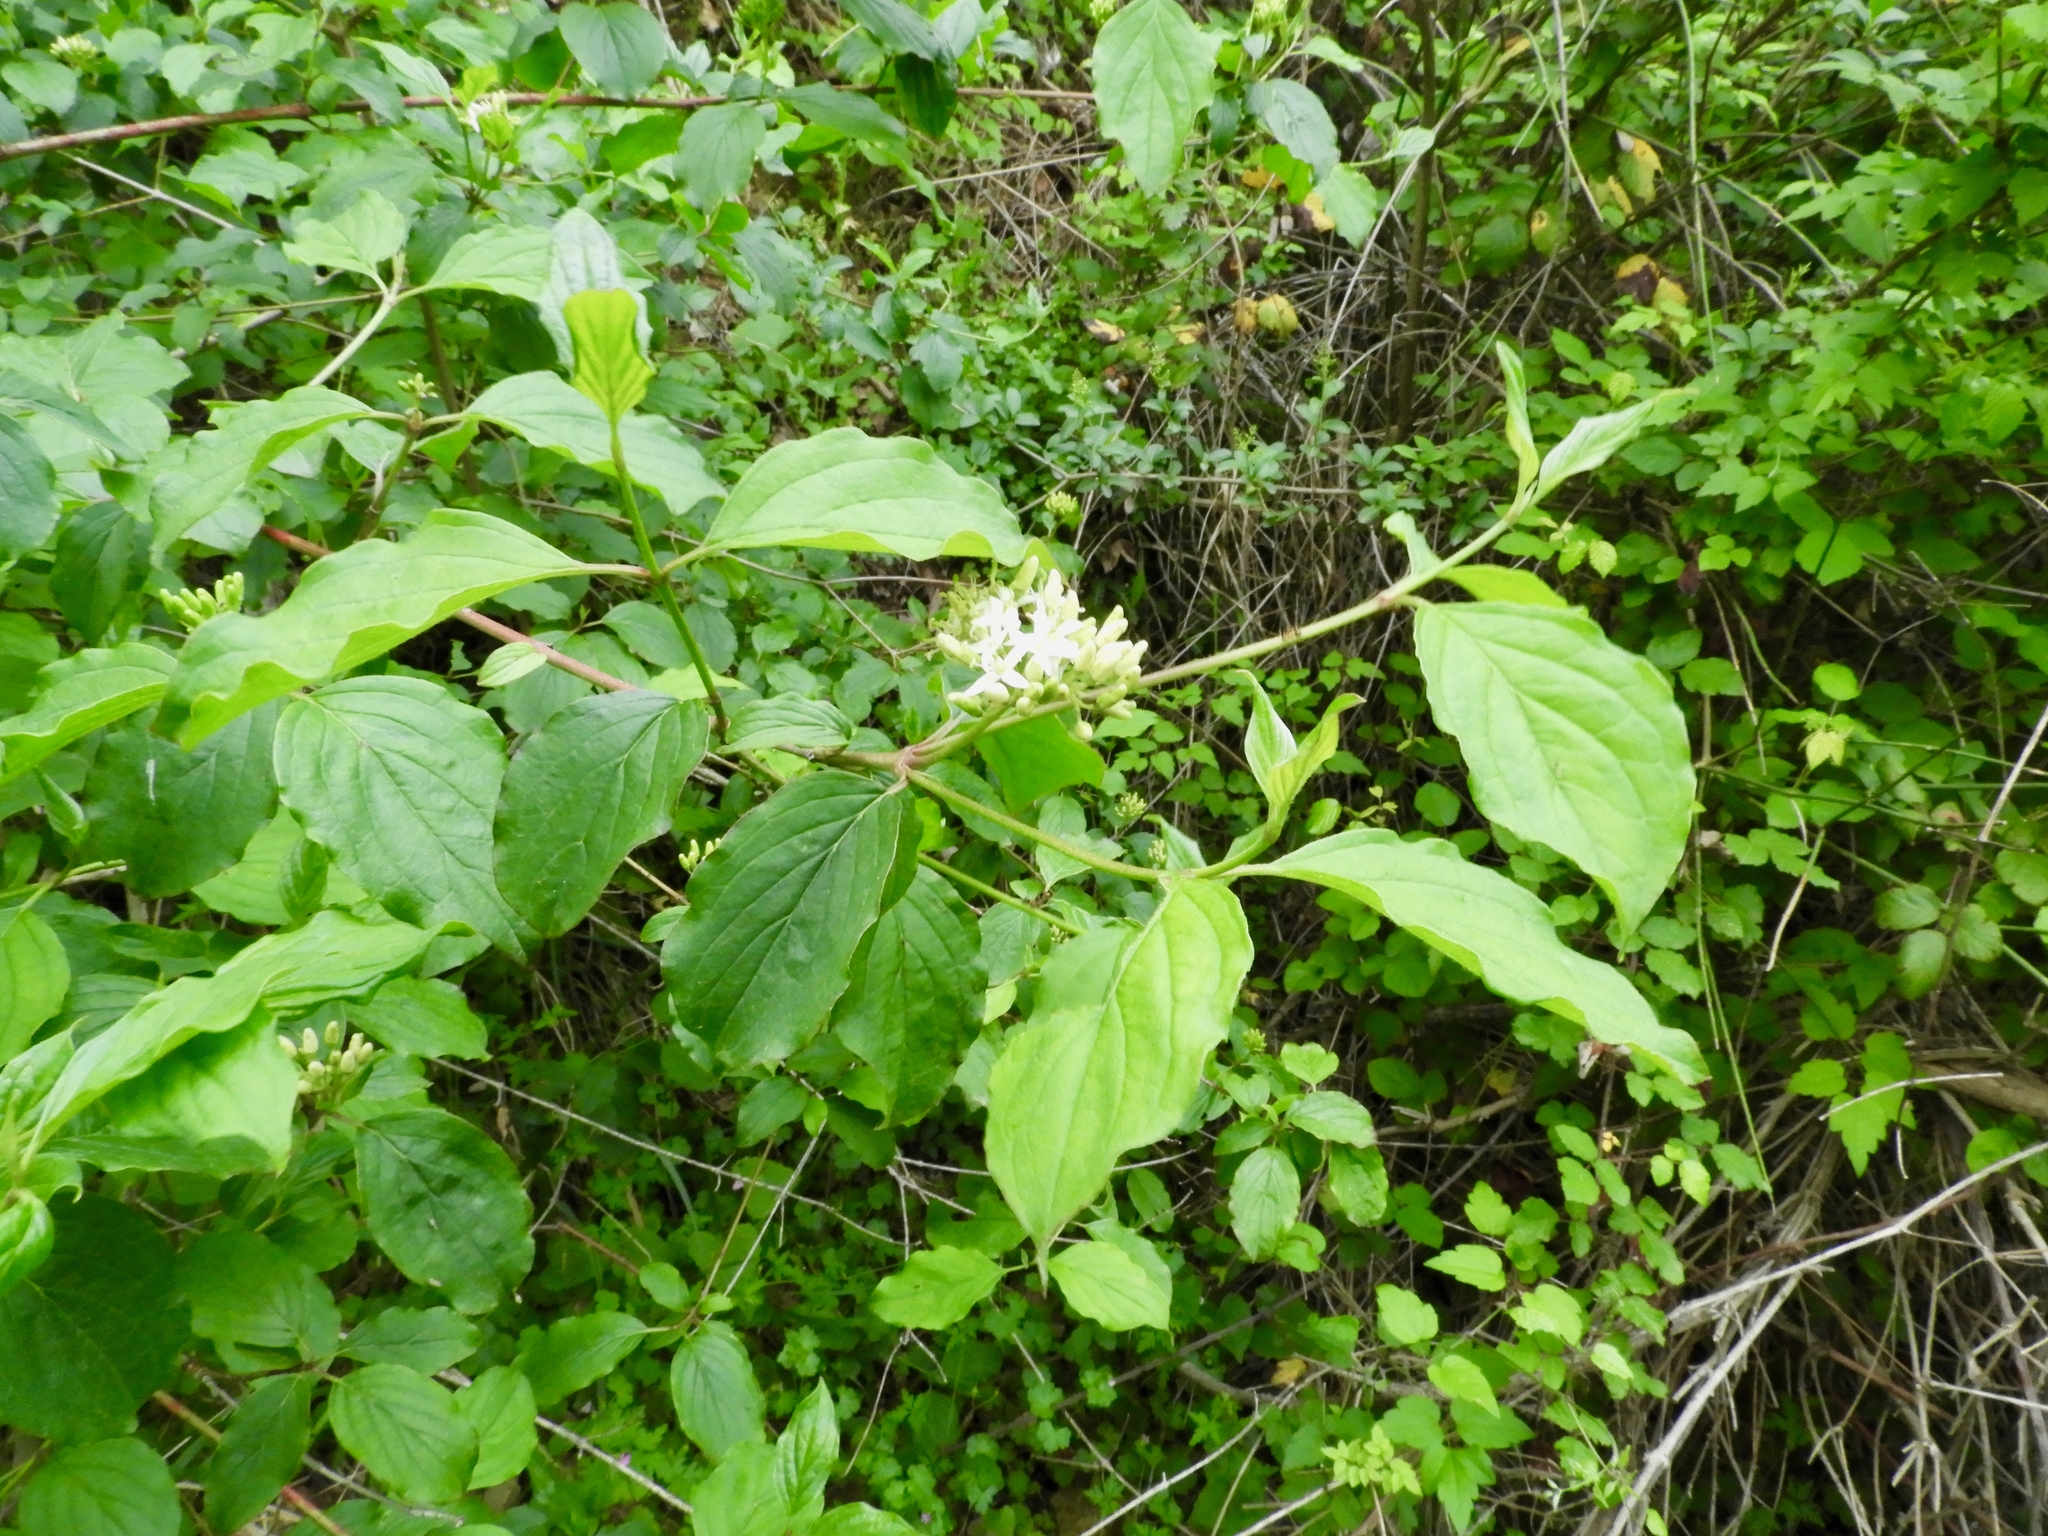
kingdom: Plantae
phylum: Tracheophyta
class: Magnoliopsida
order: Cornales
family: Cornaceae
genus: Cornus
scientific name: Cornus sanguinea
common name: Dogwood
